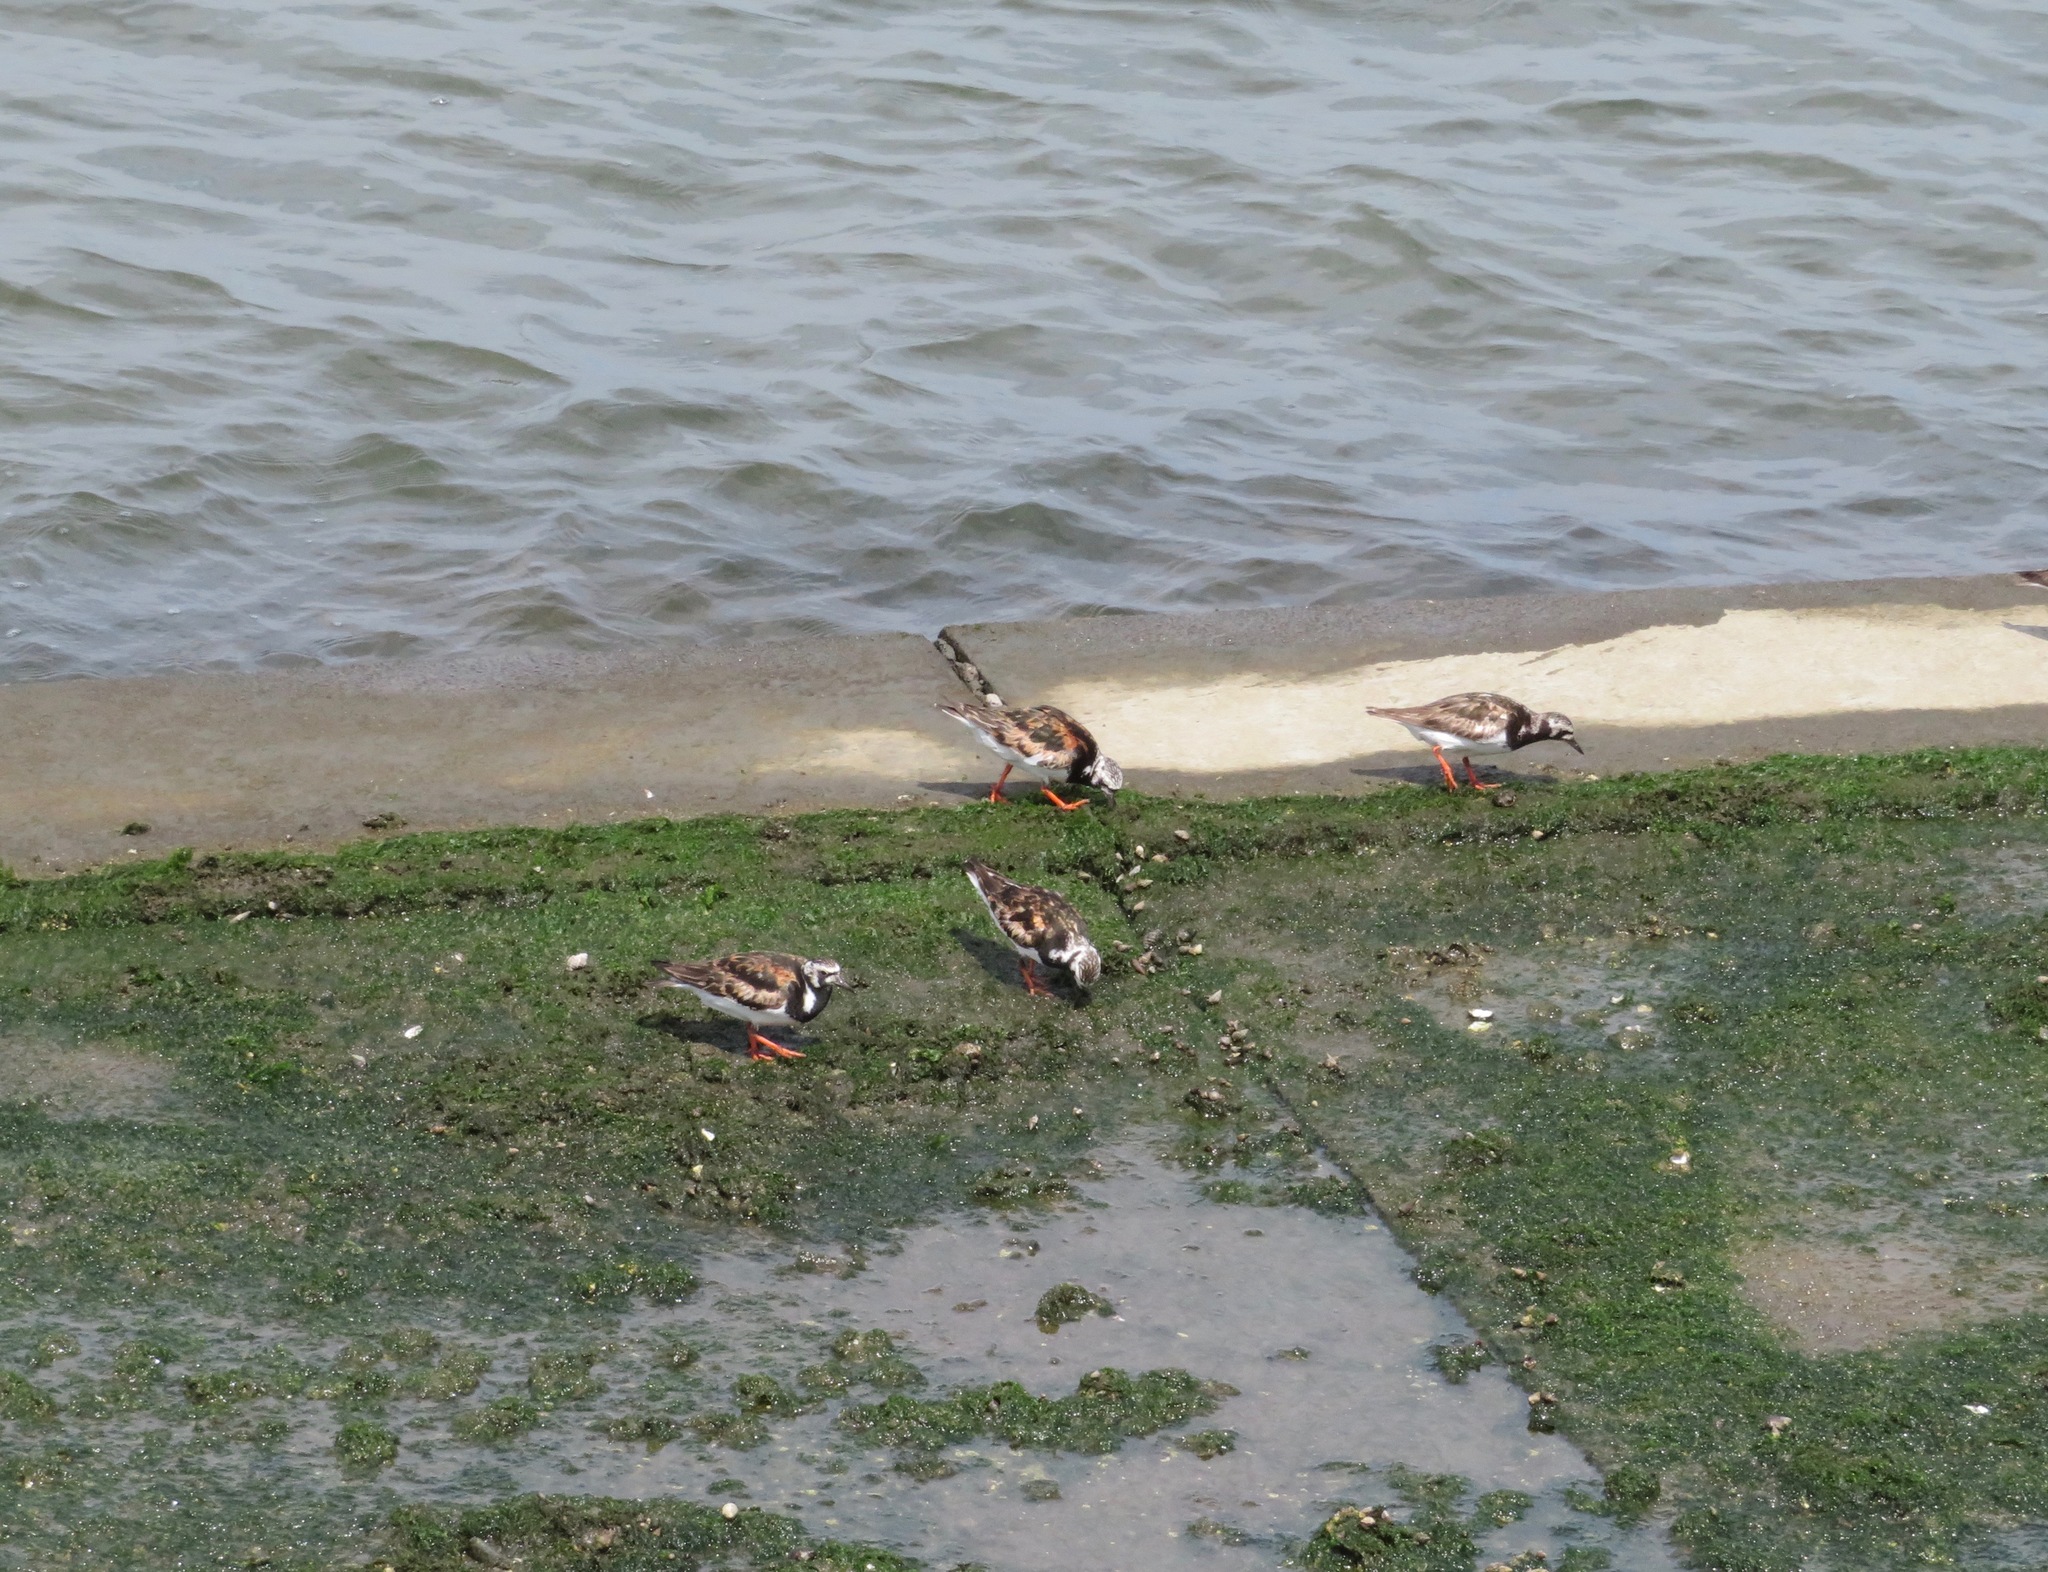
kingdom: Animalia
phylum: Chordata
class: Aves
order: Charadriiformes
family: Scolopacidae
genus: Arenaria
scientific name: Arenaria interpres
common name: Ruddy turnstone
